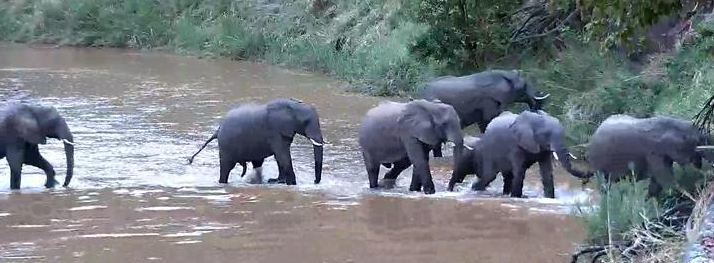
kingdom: Animalia
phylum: Chordata
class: Mammalia
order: Proboscidea
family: Elephantidae
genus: Loxodonta
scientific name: Loxodonta africana
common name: African elephant
